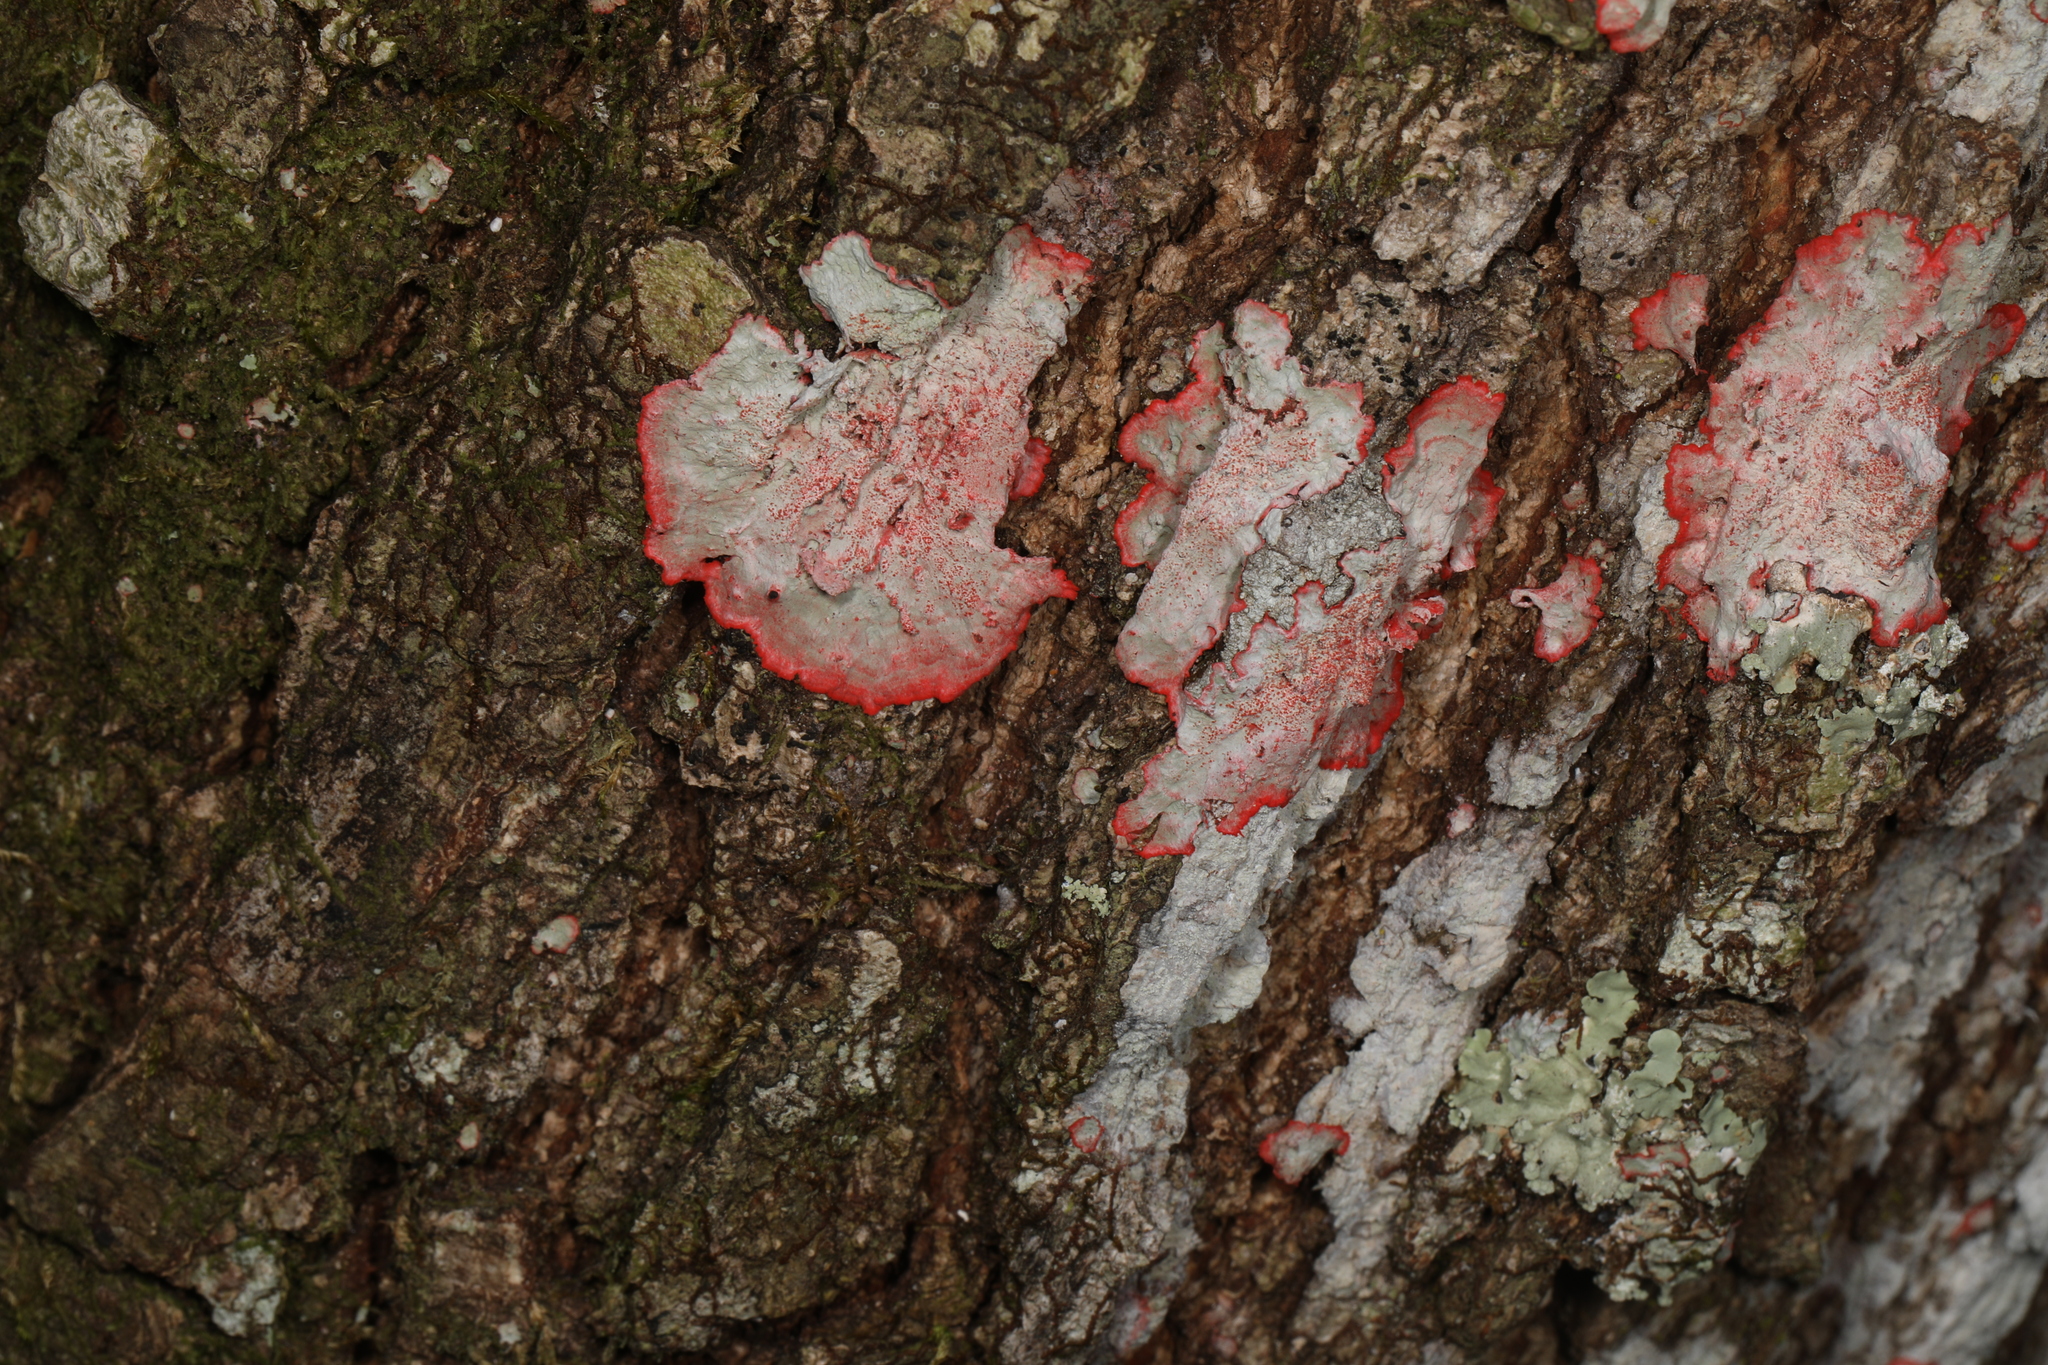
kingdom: Fungi
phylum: Ascomycota
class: Arthoniomycetes
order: Arthoniales
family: Arthoniaceae
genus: Herpothallon
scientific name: Herpothallon rubrocinctum
